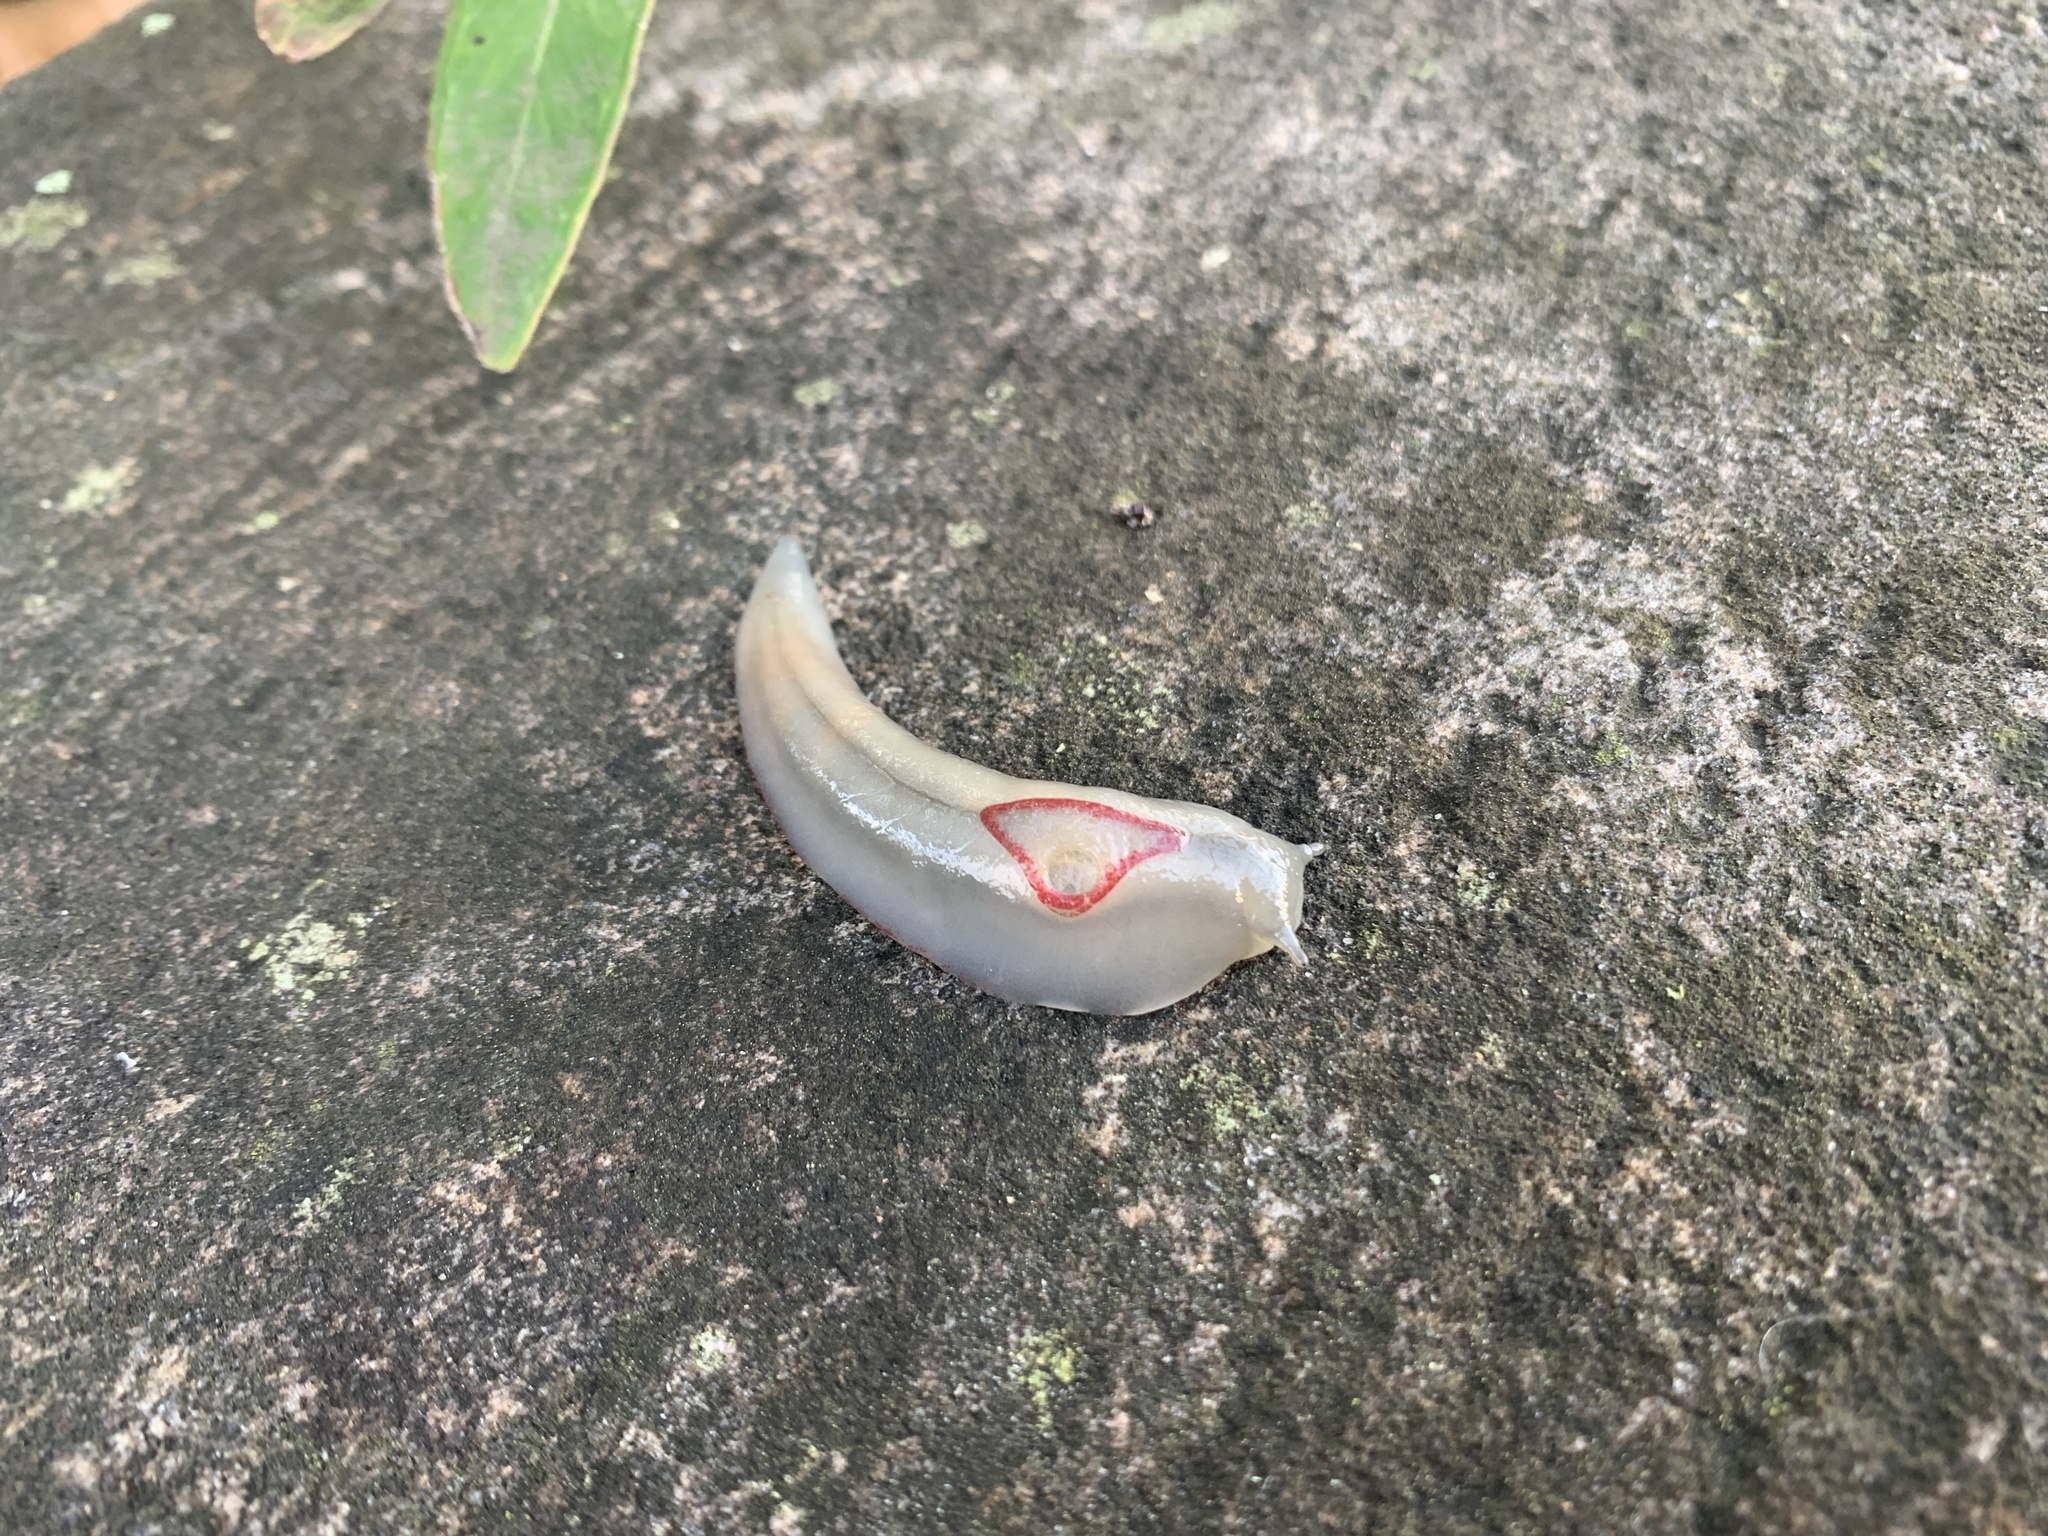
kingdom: Animalia
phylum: Mollusca
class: Gastropoda
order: Stylommatophora
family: Athoracophoridae
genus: Triboniophorus
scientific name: Triboniophorus graeffei
